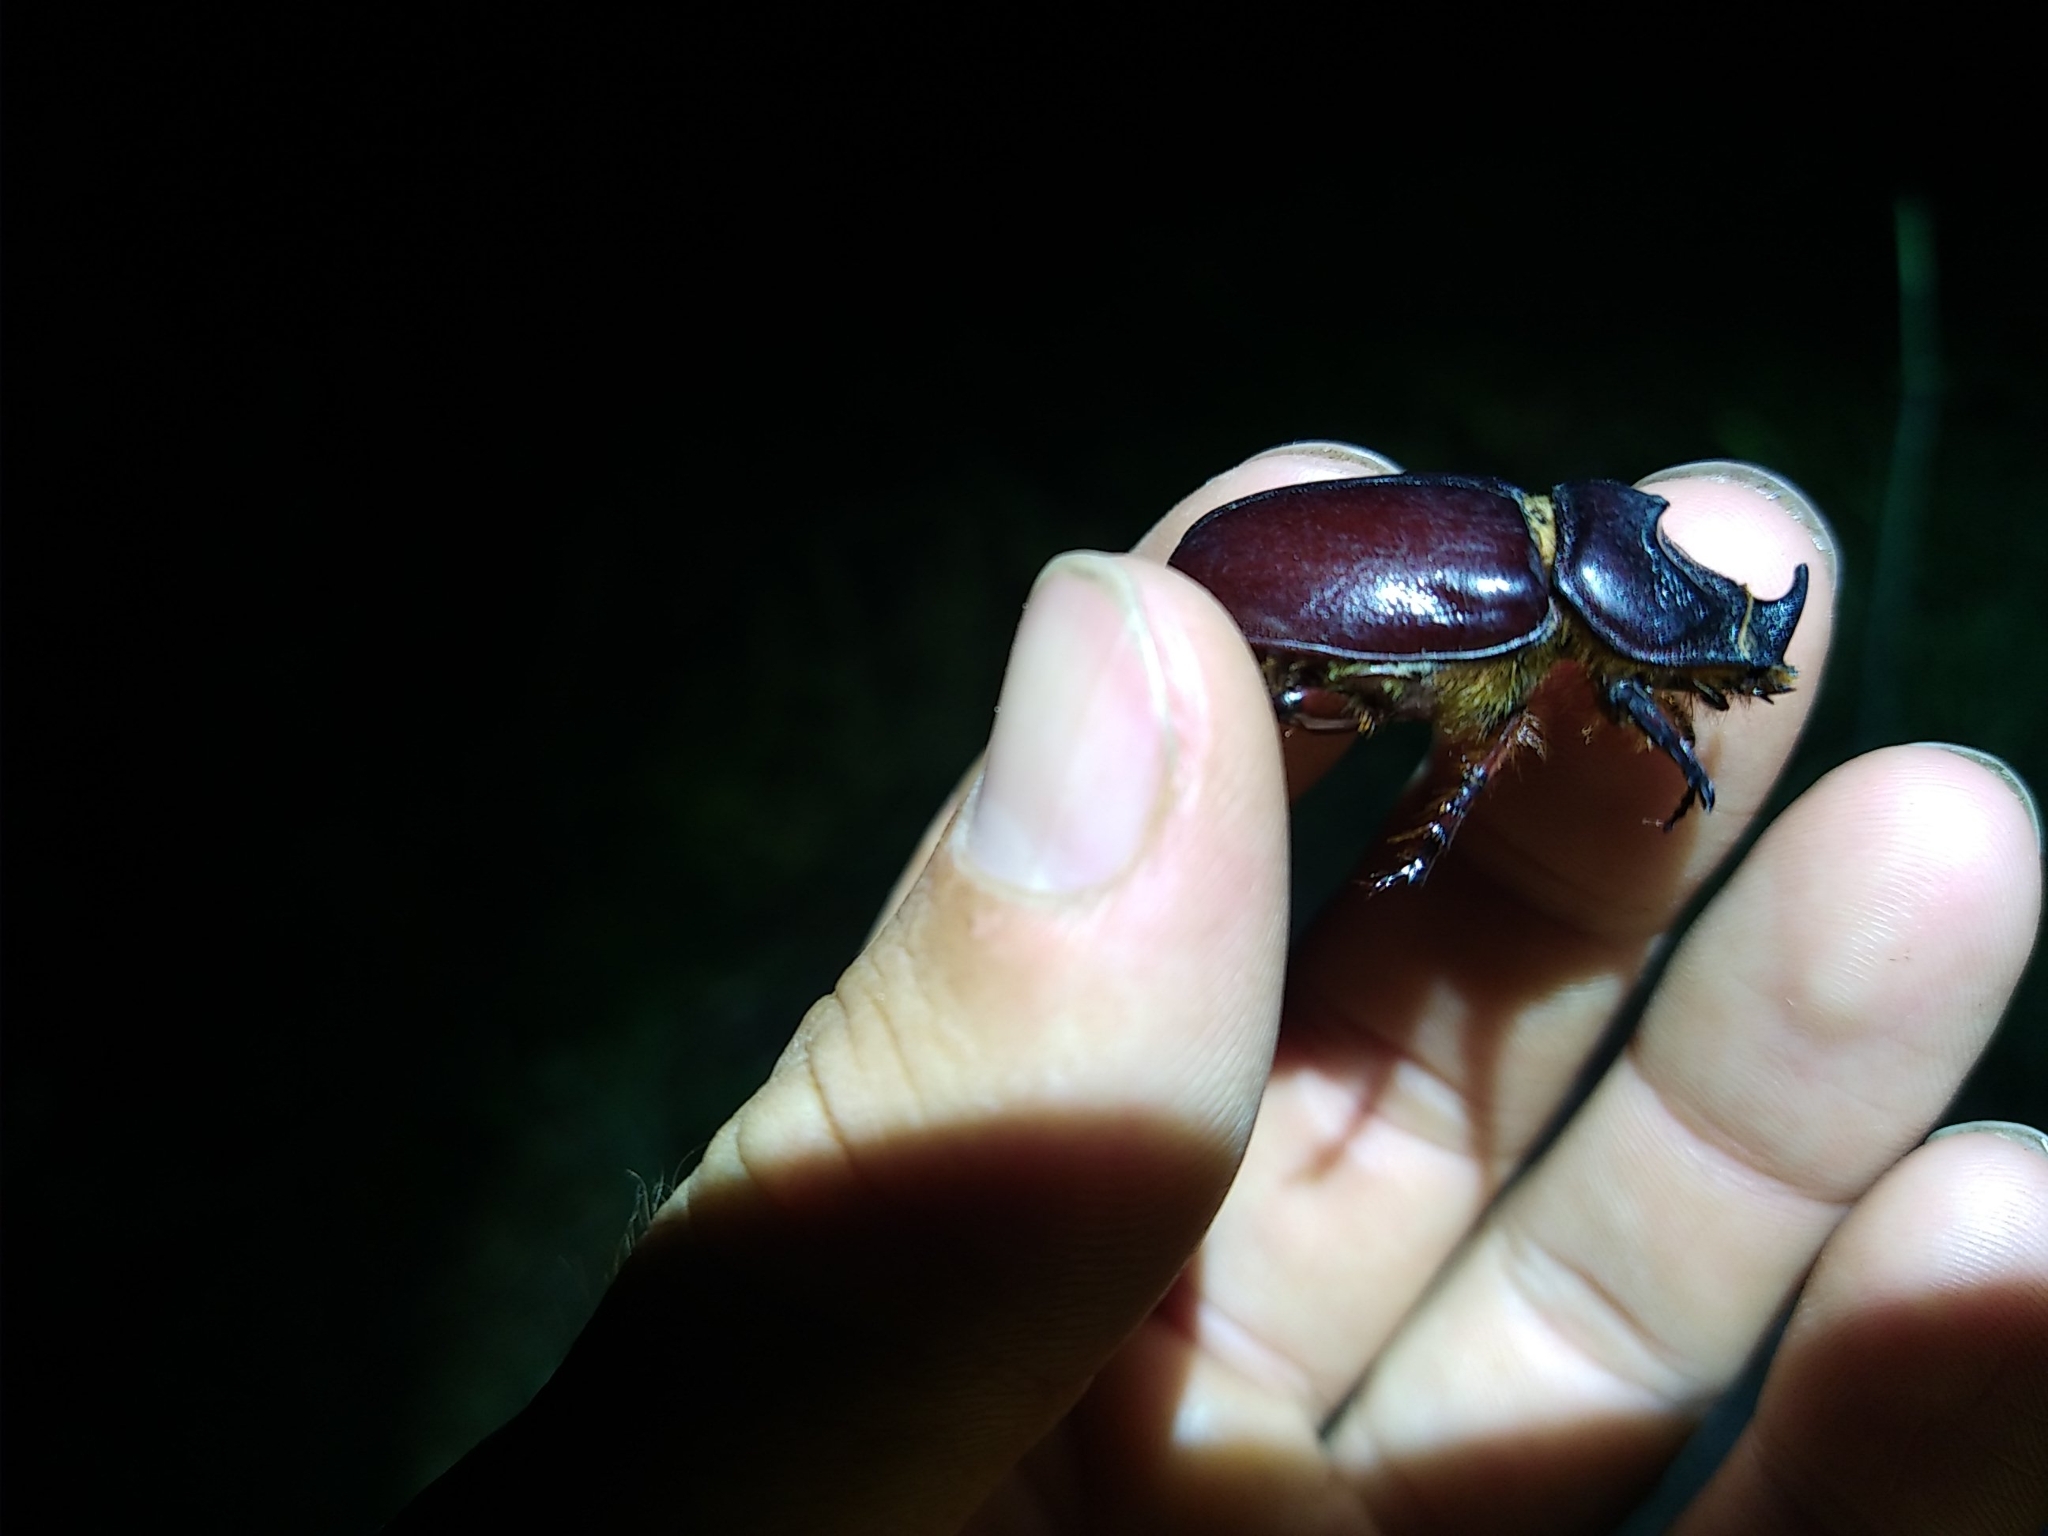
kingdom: Animalia
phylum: Arthropoda
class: Insecta
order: Coleoptera
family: Scarabaeidae
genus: Oryctes
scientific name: Oryctes nasicornis
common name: European rhinoceros beetle
